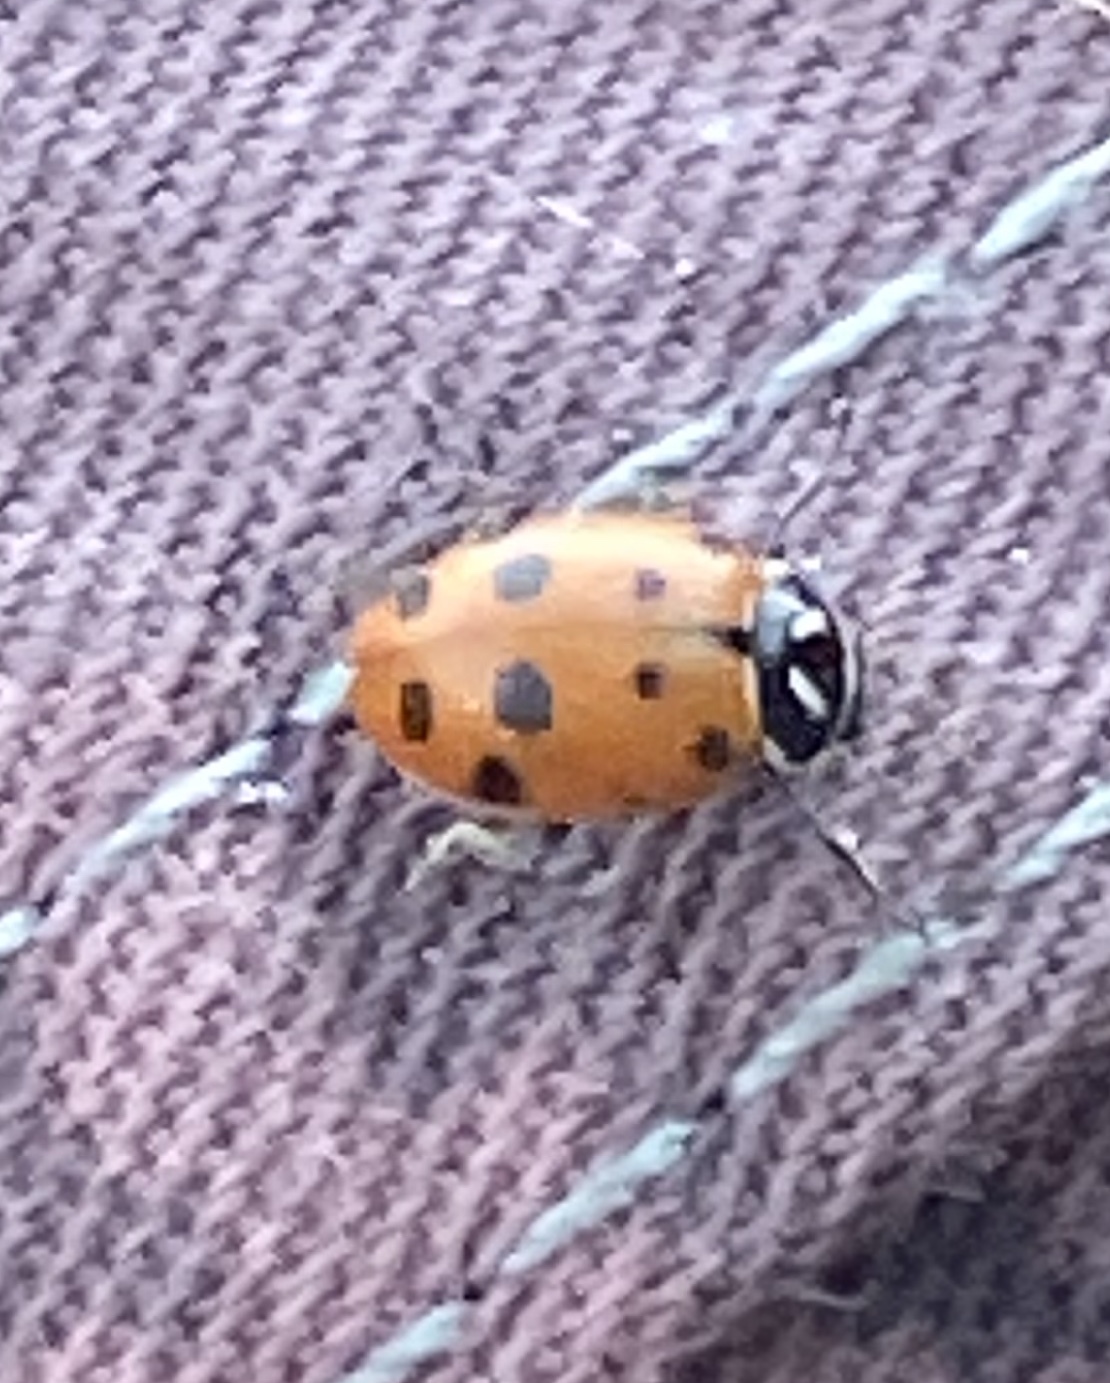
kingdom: Animalia
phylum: Arthropoda
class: Insecta
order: Coleoptera
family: Coccinellidae
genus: Hippodamia
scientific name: Hippodamia convergens
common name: Convergent lady beetle
